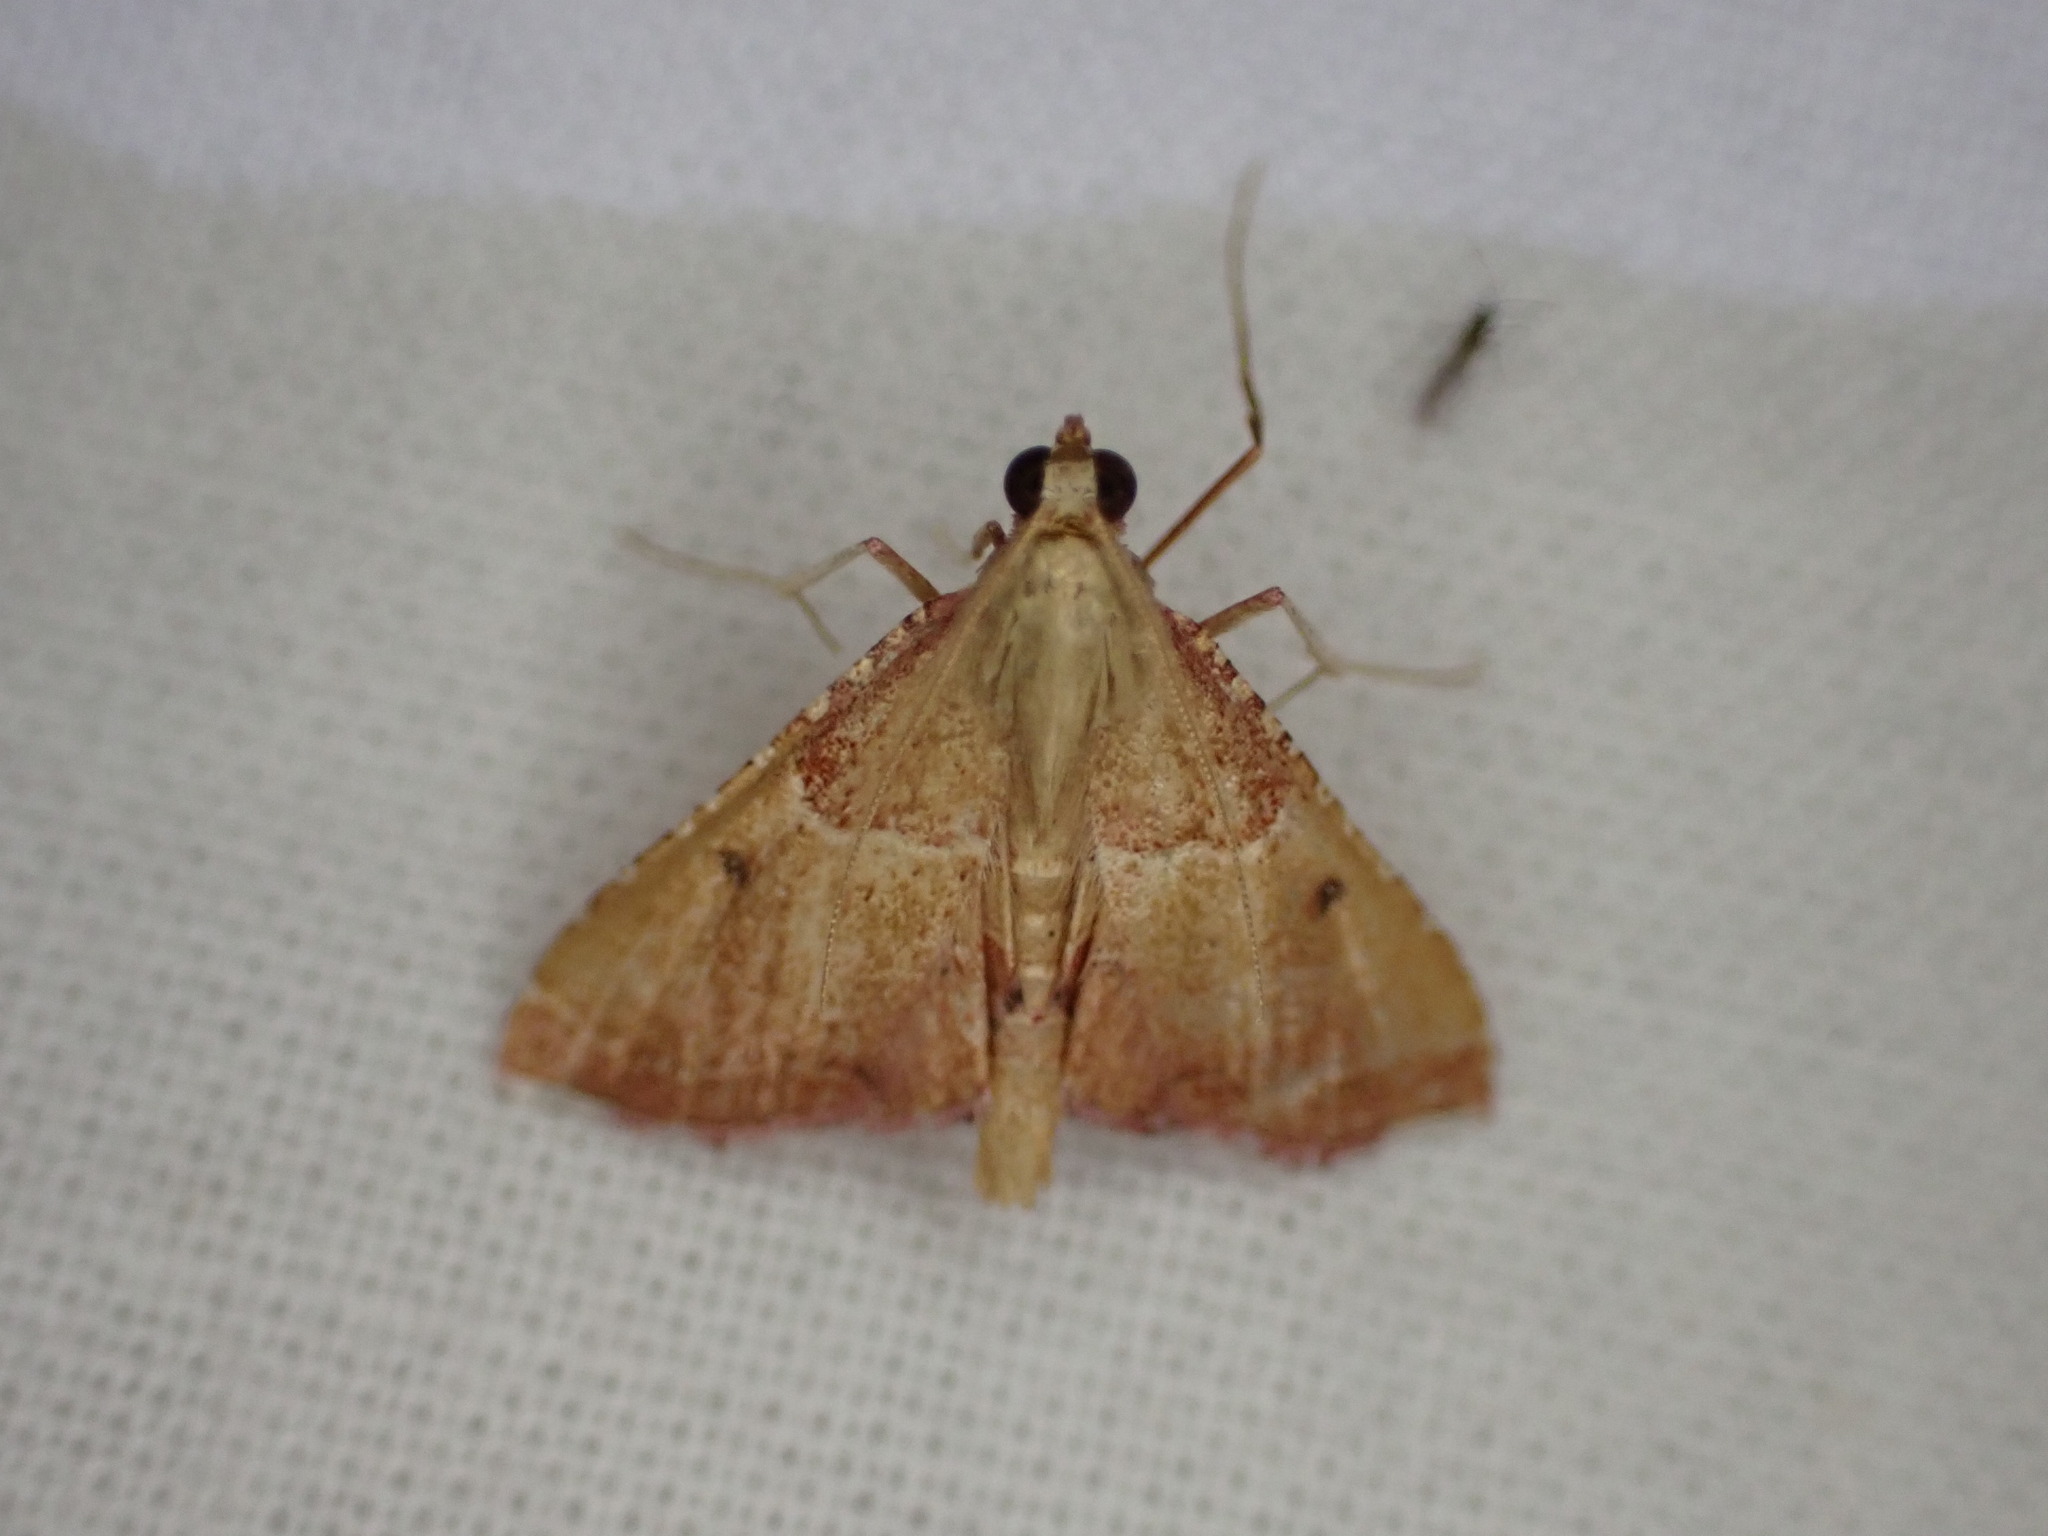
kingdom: Animalia
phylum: Arthropoda
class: Insecta
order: Lepidoptera
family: Pyralidae
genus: Endotricha
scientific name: Endotricha flammealis
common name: Rosy tabby
